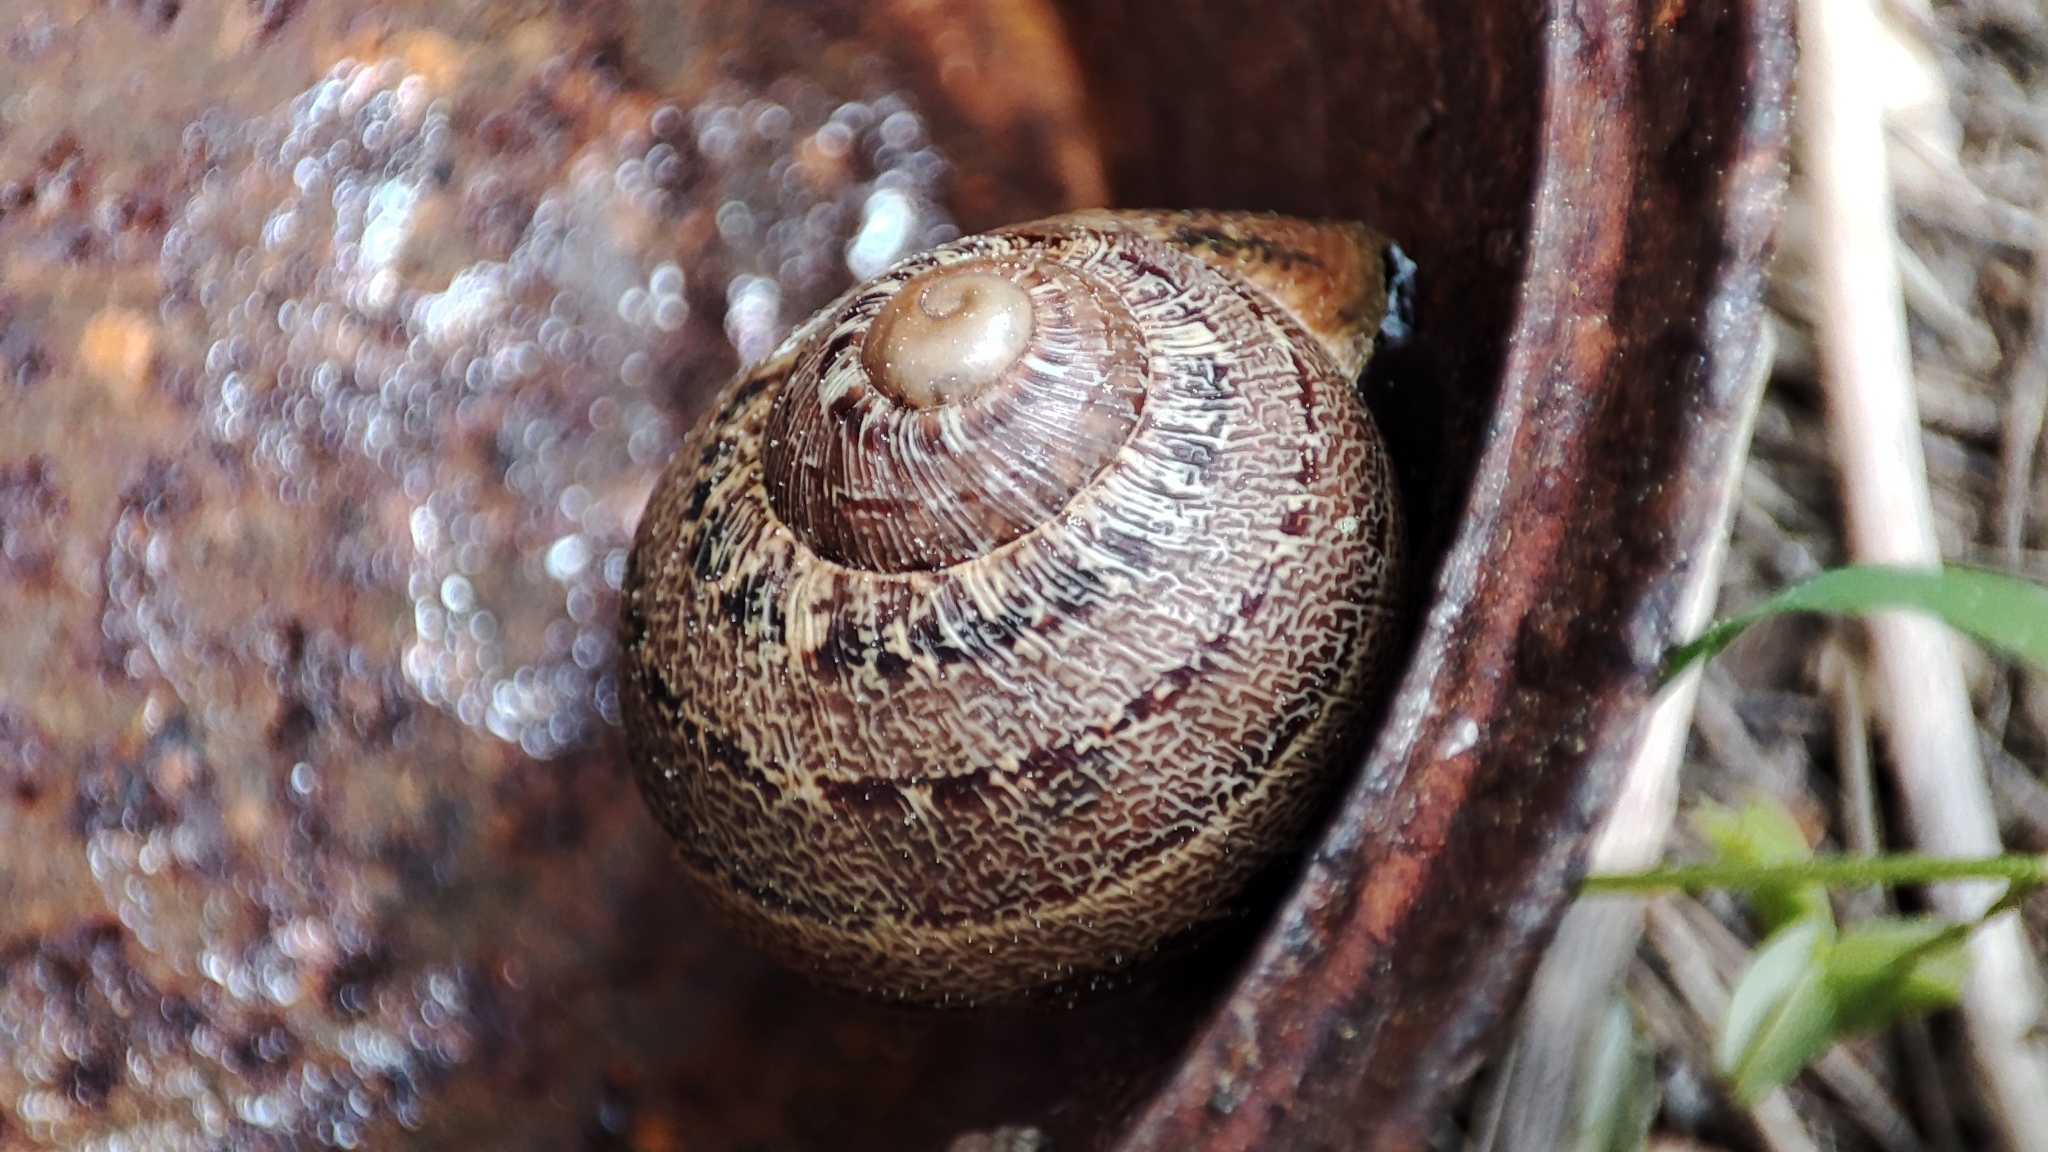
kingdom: Animalia
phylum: Mollusca
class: Gastropoda
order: Stylommatophora
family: Helicidae
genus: Cornu
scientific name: Cornu aspersum
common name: Brown garden snail
